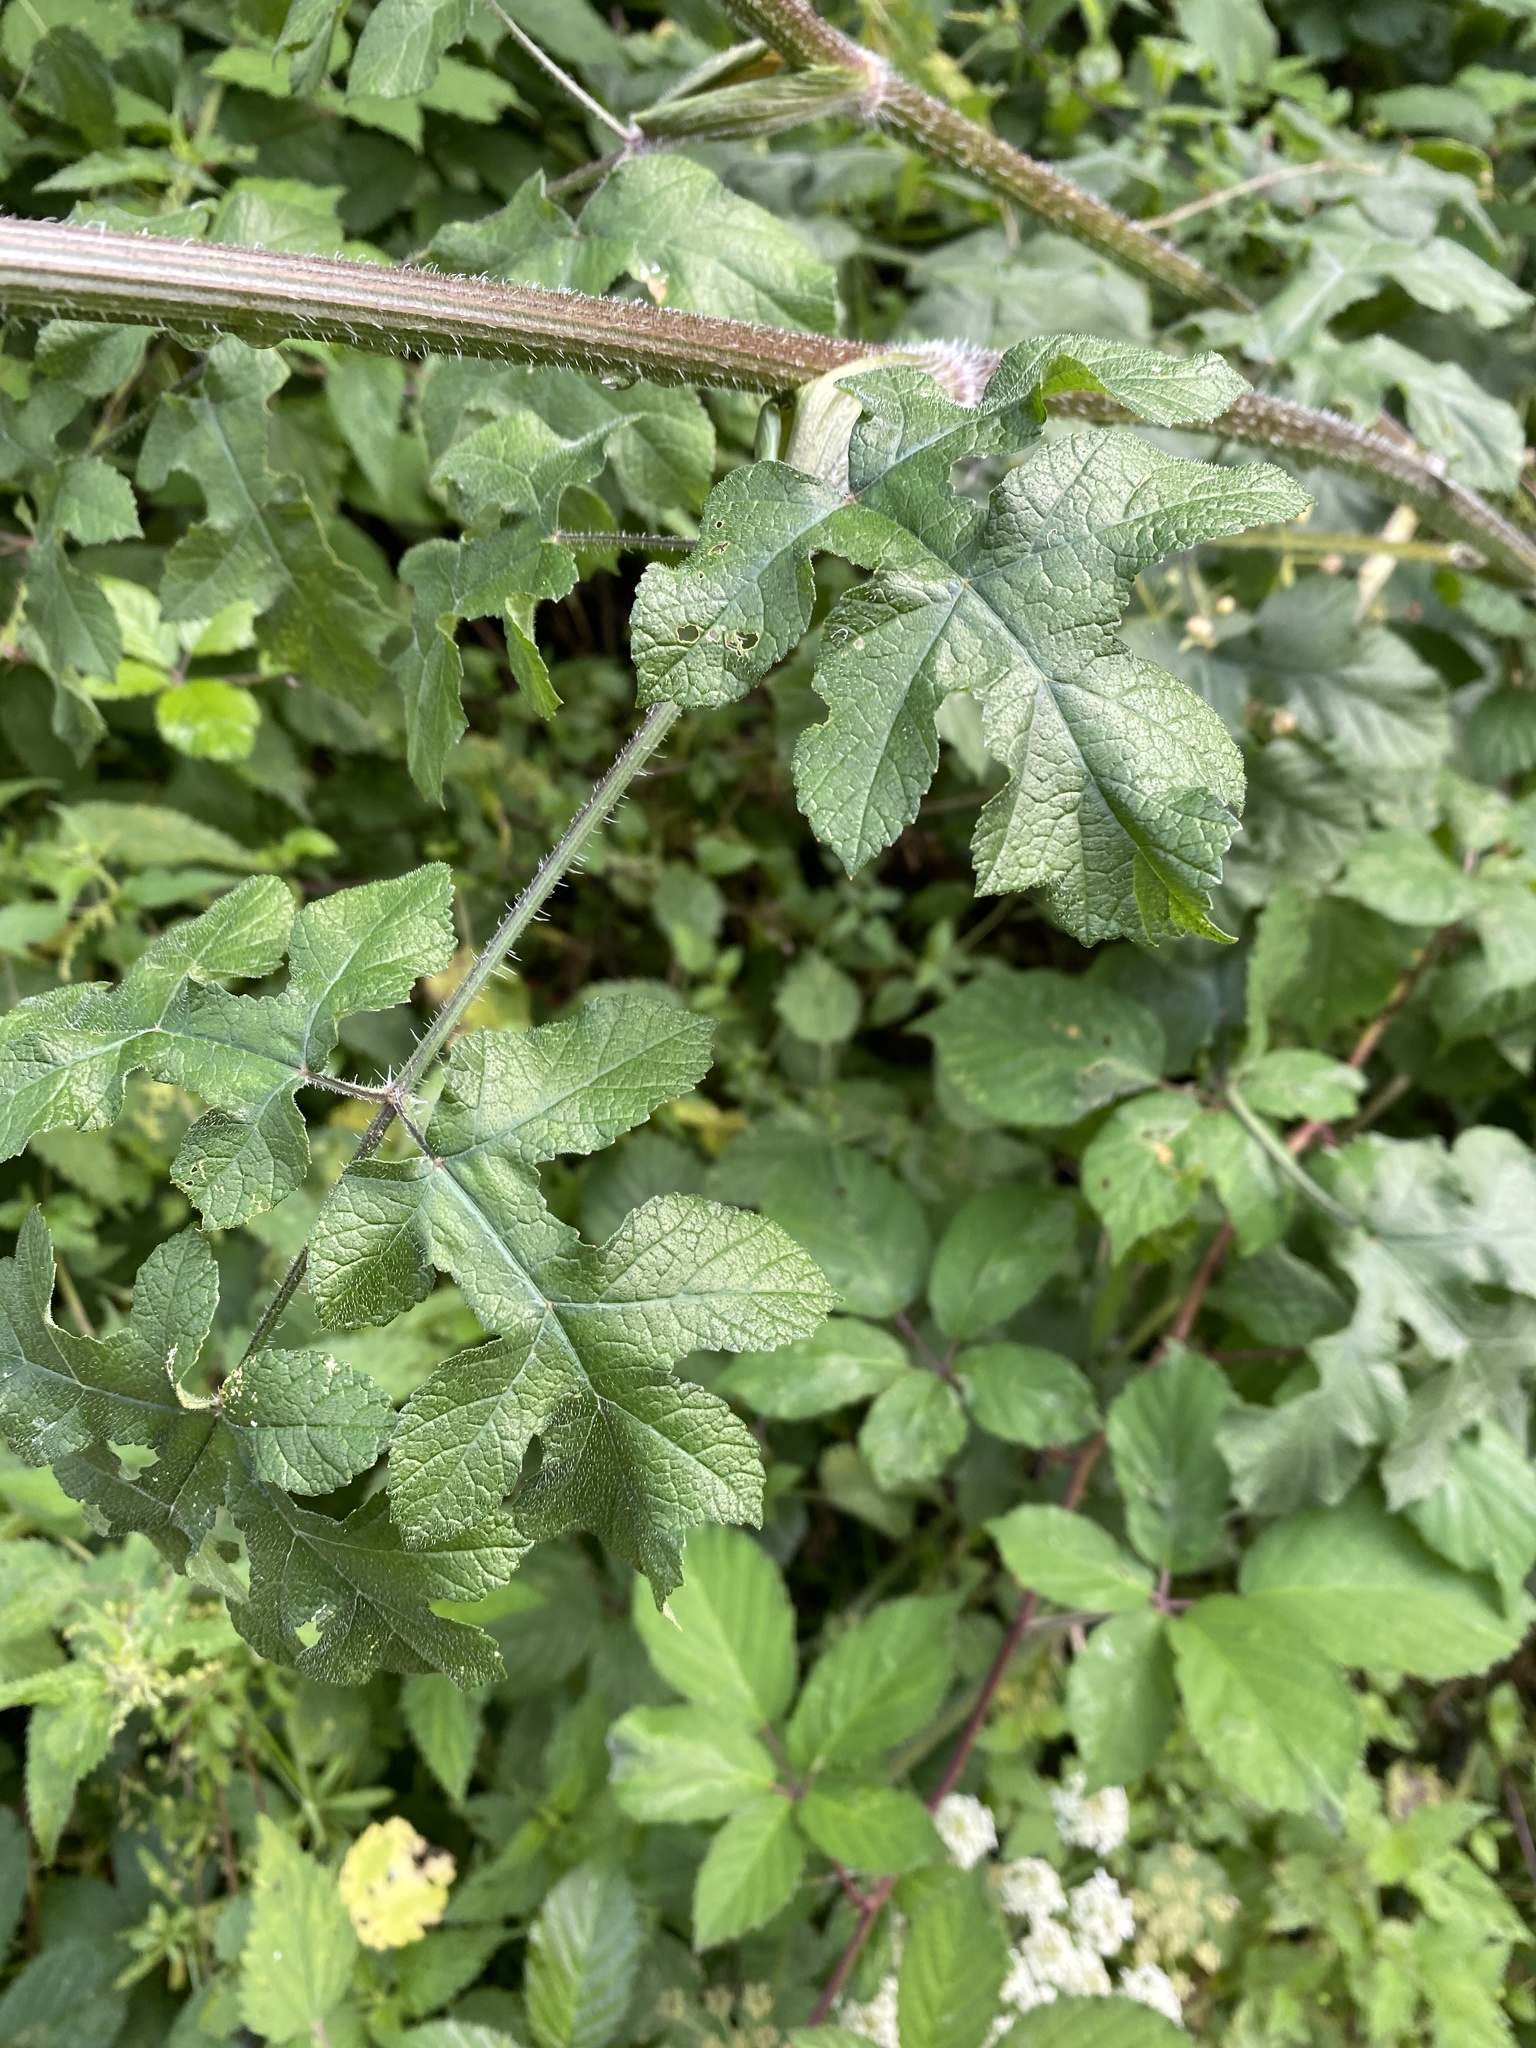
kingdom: Plantae
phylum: Tracheophyta
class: Magnoliopsida
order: Apiales
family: Apiaceae
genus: Heracleum
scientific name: Heracleum sphondylium
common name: Hogweed
